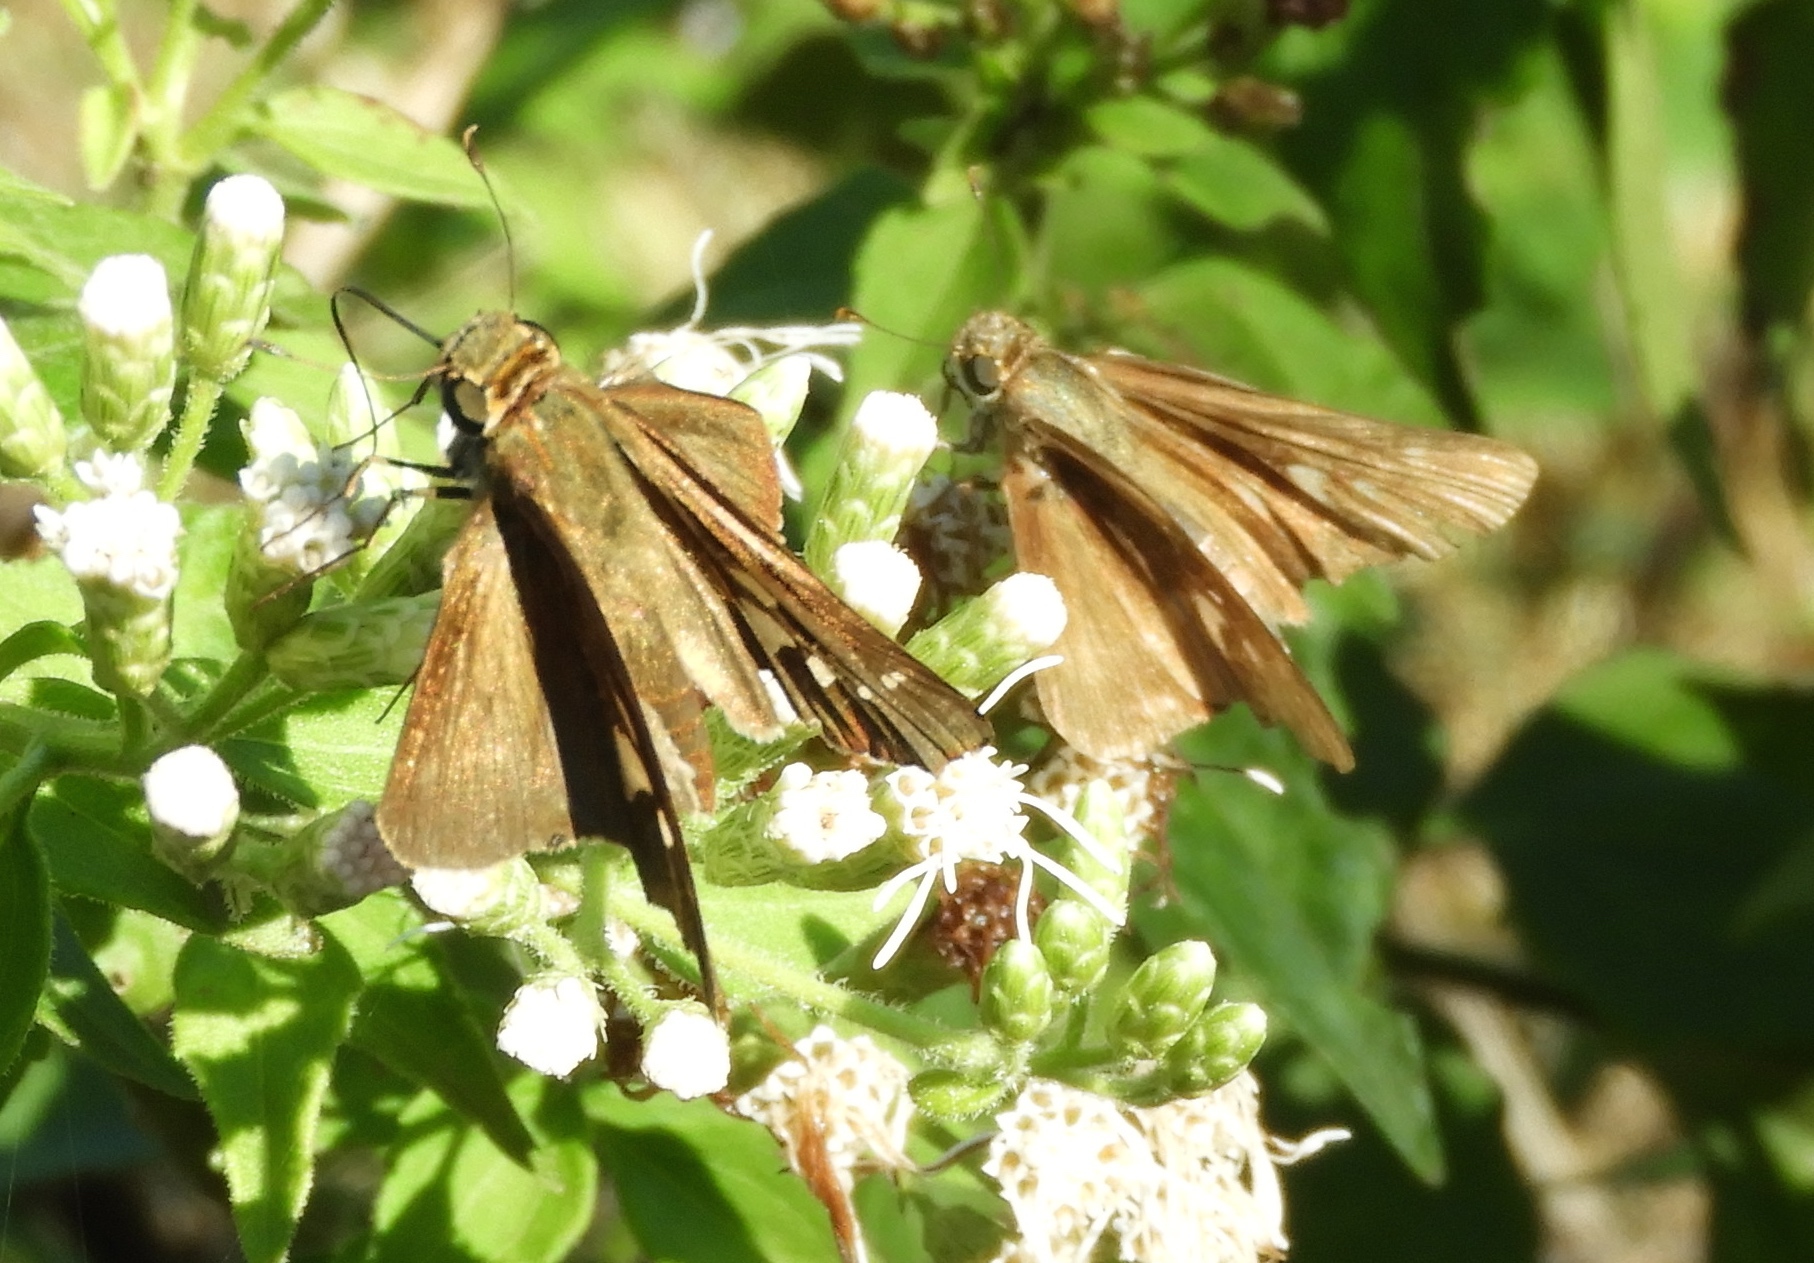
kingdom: Animalia
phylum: Arthropoda
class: Insecta
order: Lepidoptera
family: Hesperiidae
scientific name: Hesperiidae
